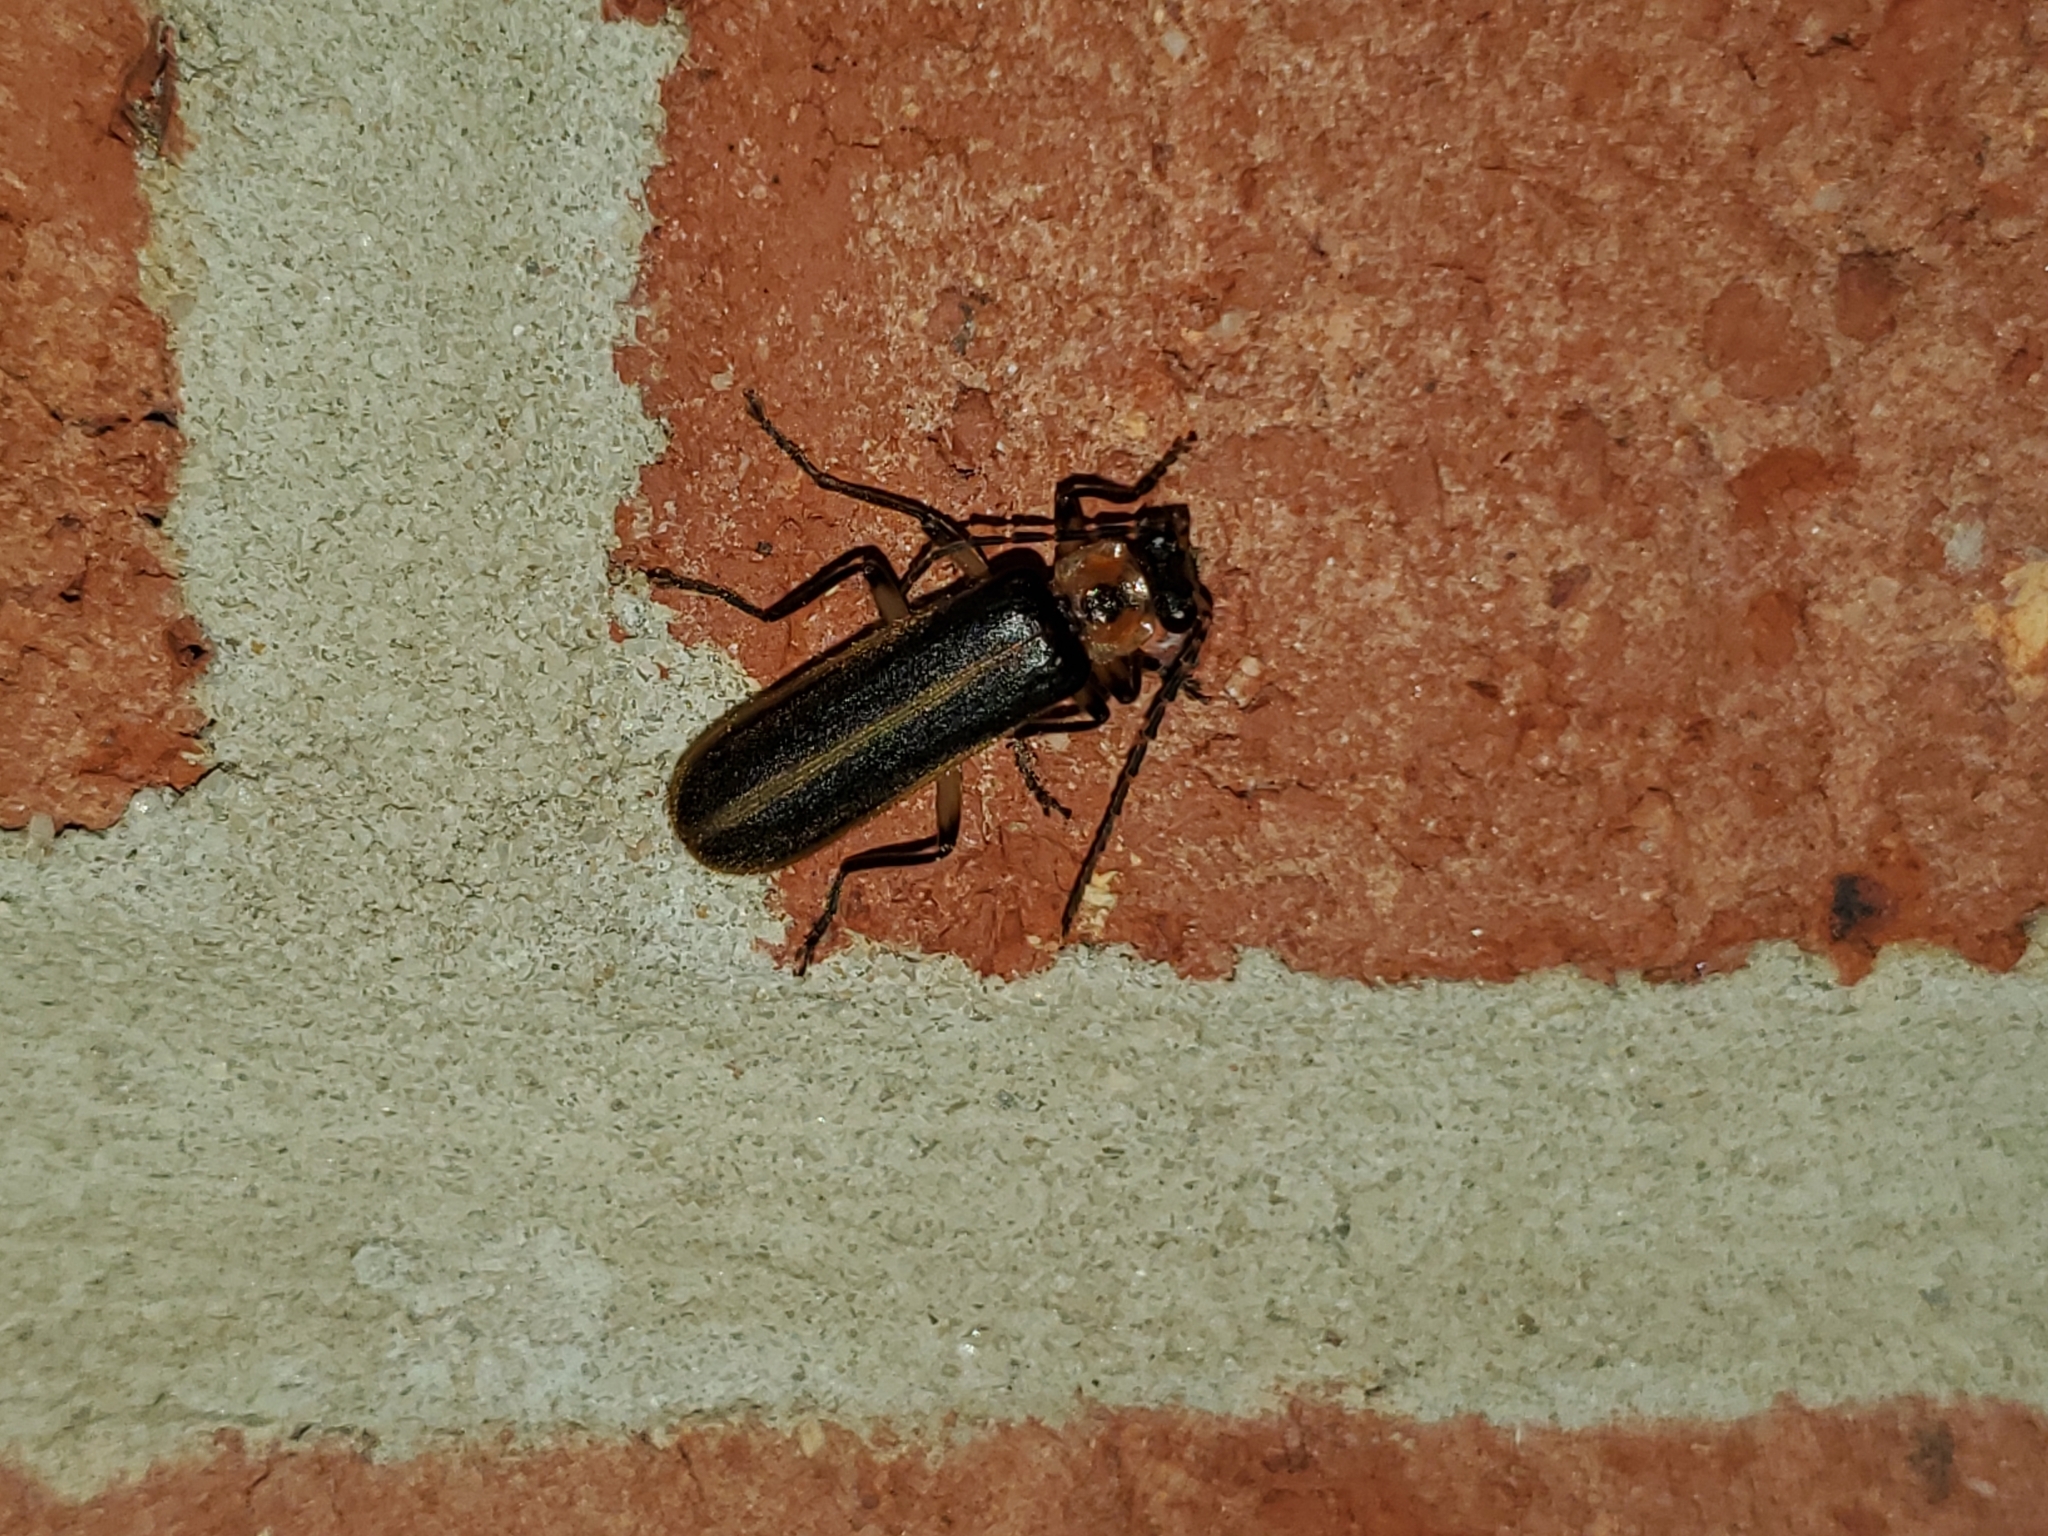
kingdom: Animalia
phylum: Arthropoda
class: Insecta
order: Coleoptera
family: Cantharidae
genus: Podabrus
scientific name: Podabrus basilaris
